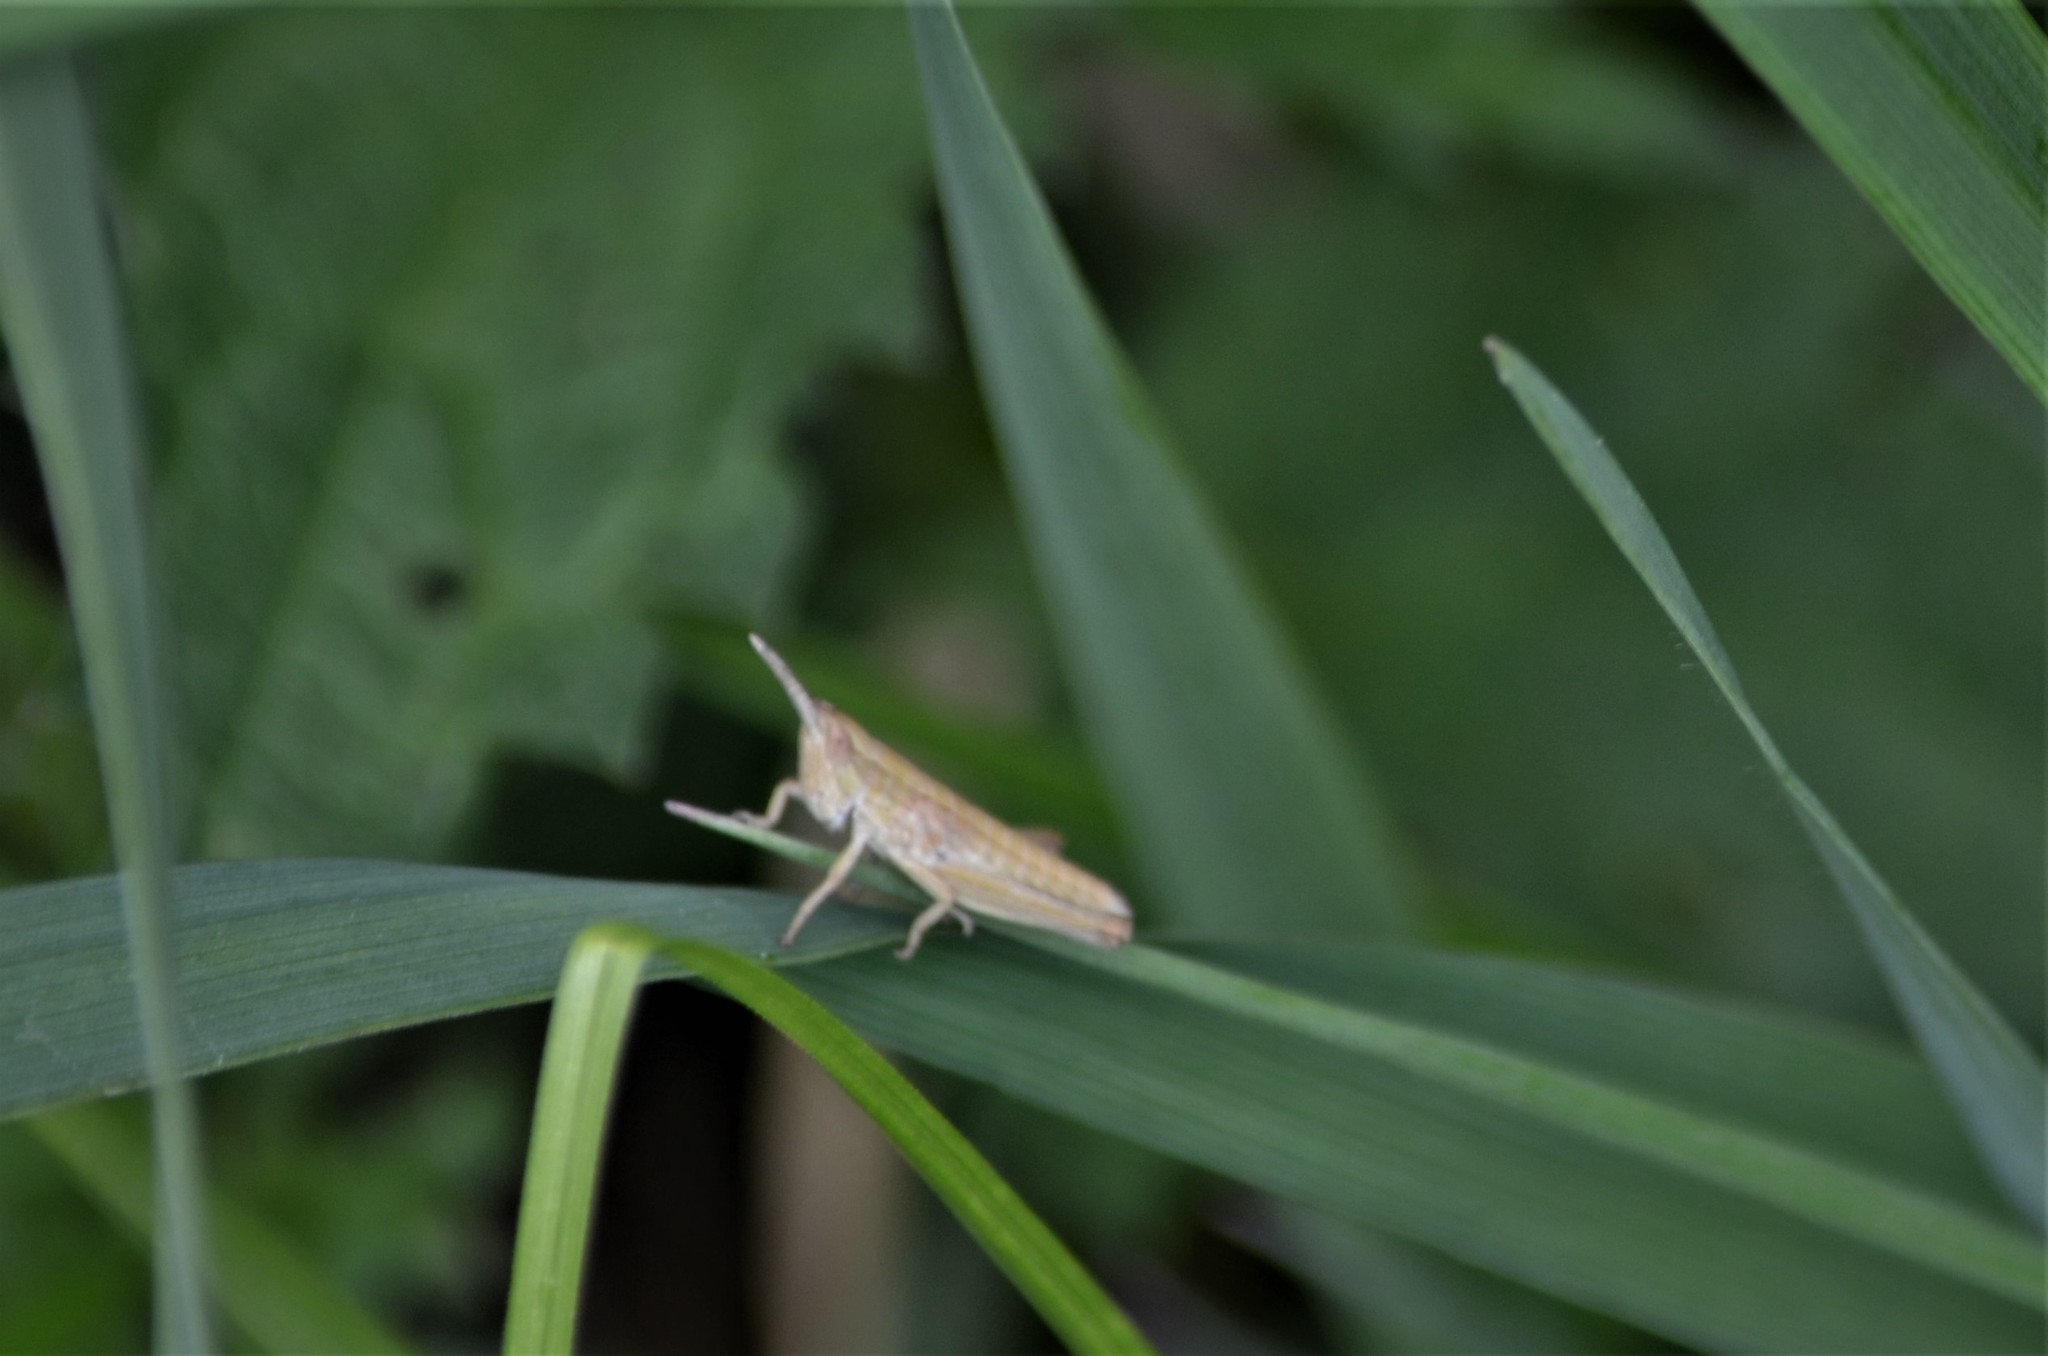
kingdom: Animalia
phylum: Arthropoda
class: Insecta
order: Orthoptera
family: Acrididae
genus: Euthystira
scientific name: Euthystira brachyptera
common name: Small gold grasshopper
